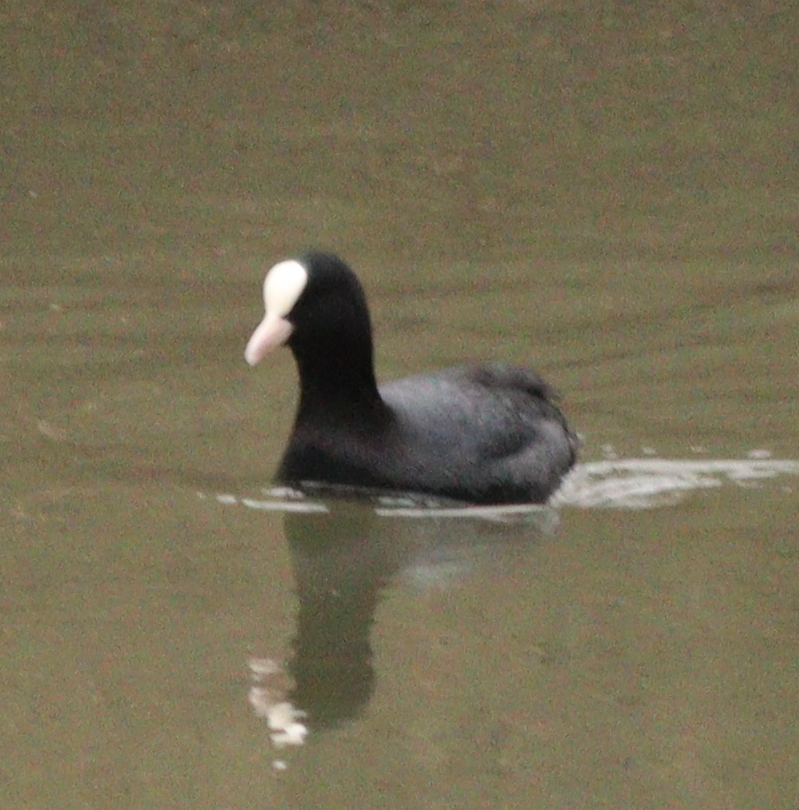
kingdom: Animalia
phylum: Chordata
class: Aves
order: Gruiformes
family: Rallidae
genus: Fulica
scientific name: Fulica atra
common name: Eurasian coot
